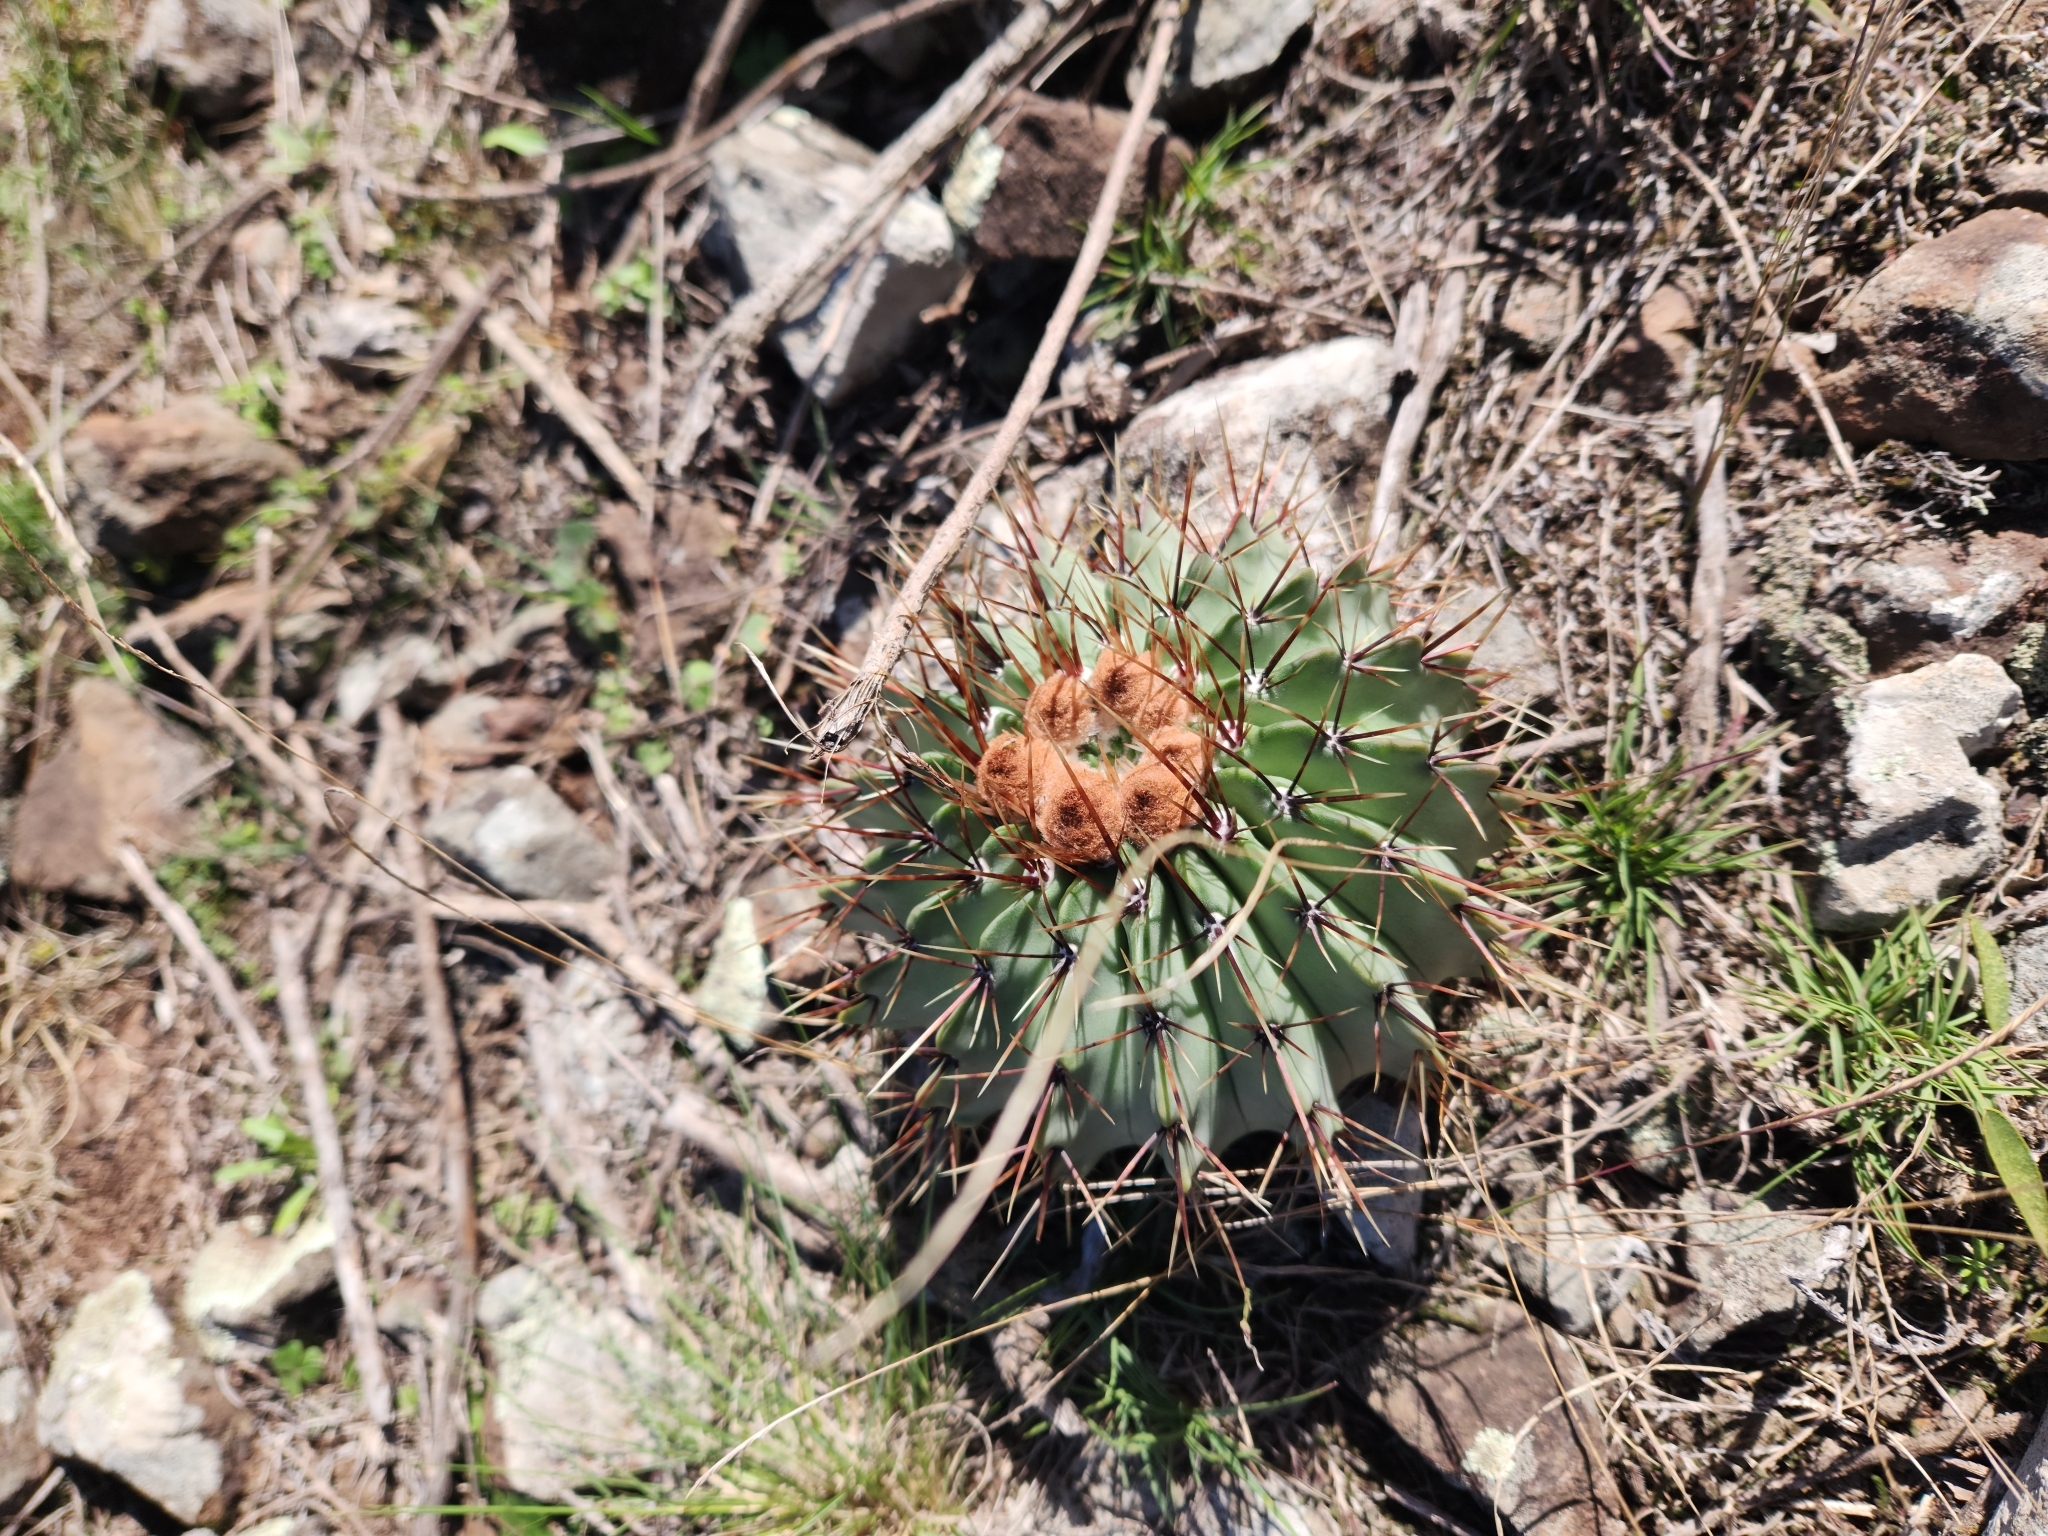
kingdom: Plantae
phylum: Tracheophyta
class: Magnoliopsida
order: Caryophyllales
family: Cactaceae
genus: Parodia
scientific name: Parodia buiningii
